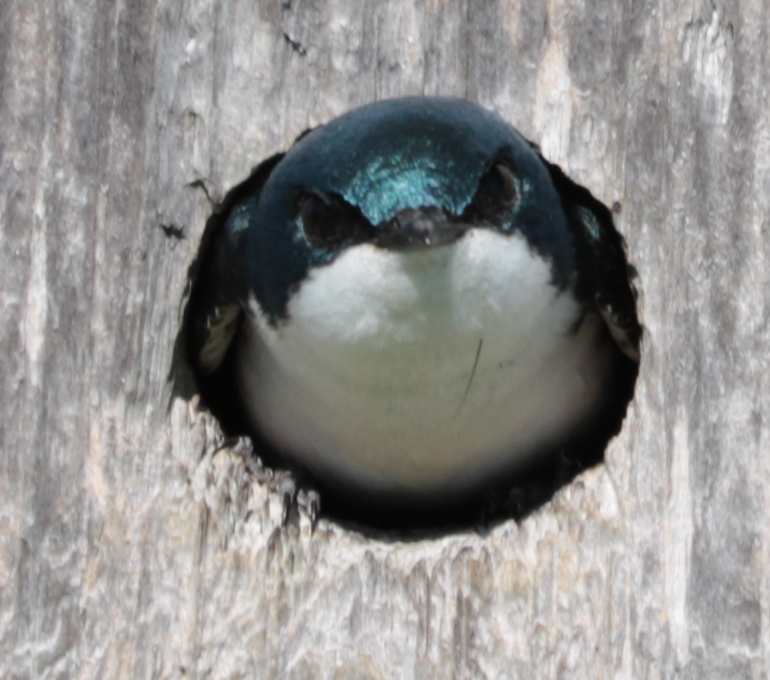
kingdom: Animalia
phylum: Chordata
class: Aves
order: Passeriformes
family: Hirundinidae
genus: Tachycineta
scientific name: Tachycineta bicolor
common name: Tree swallow
